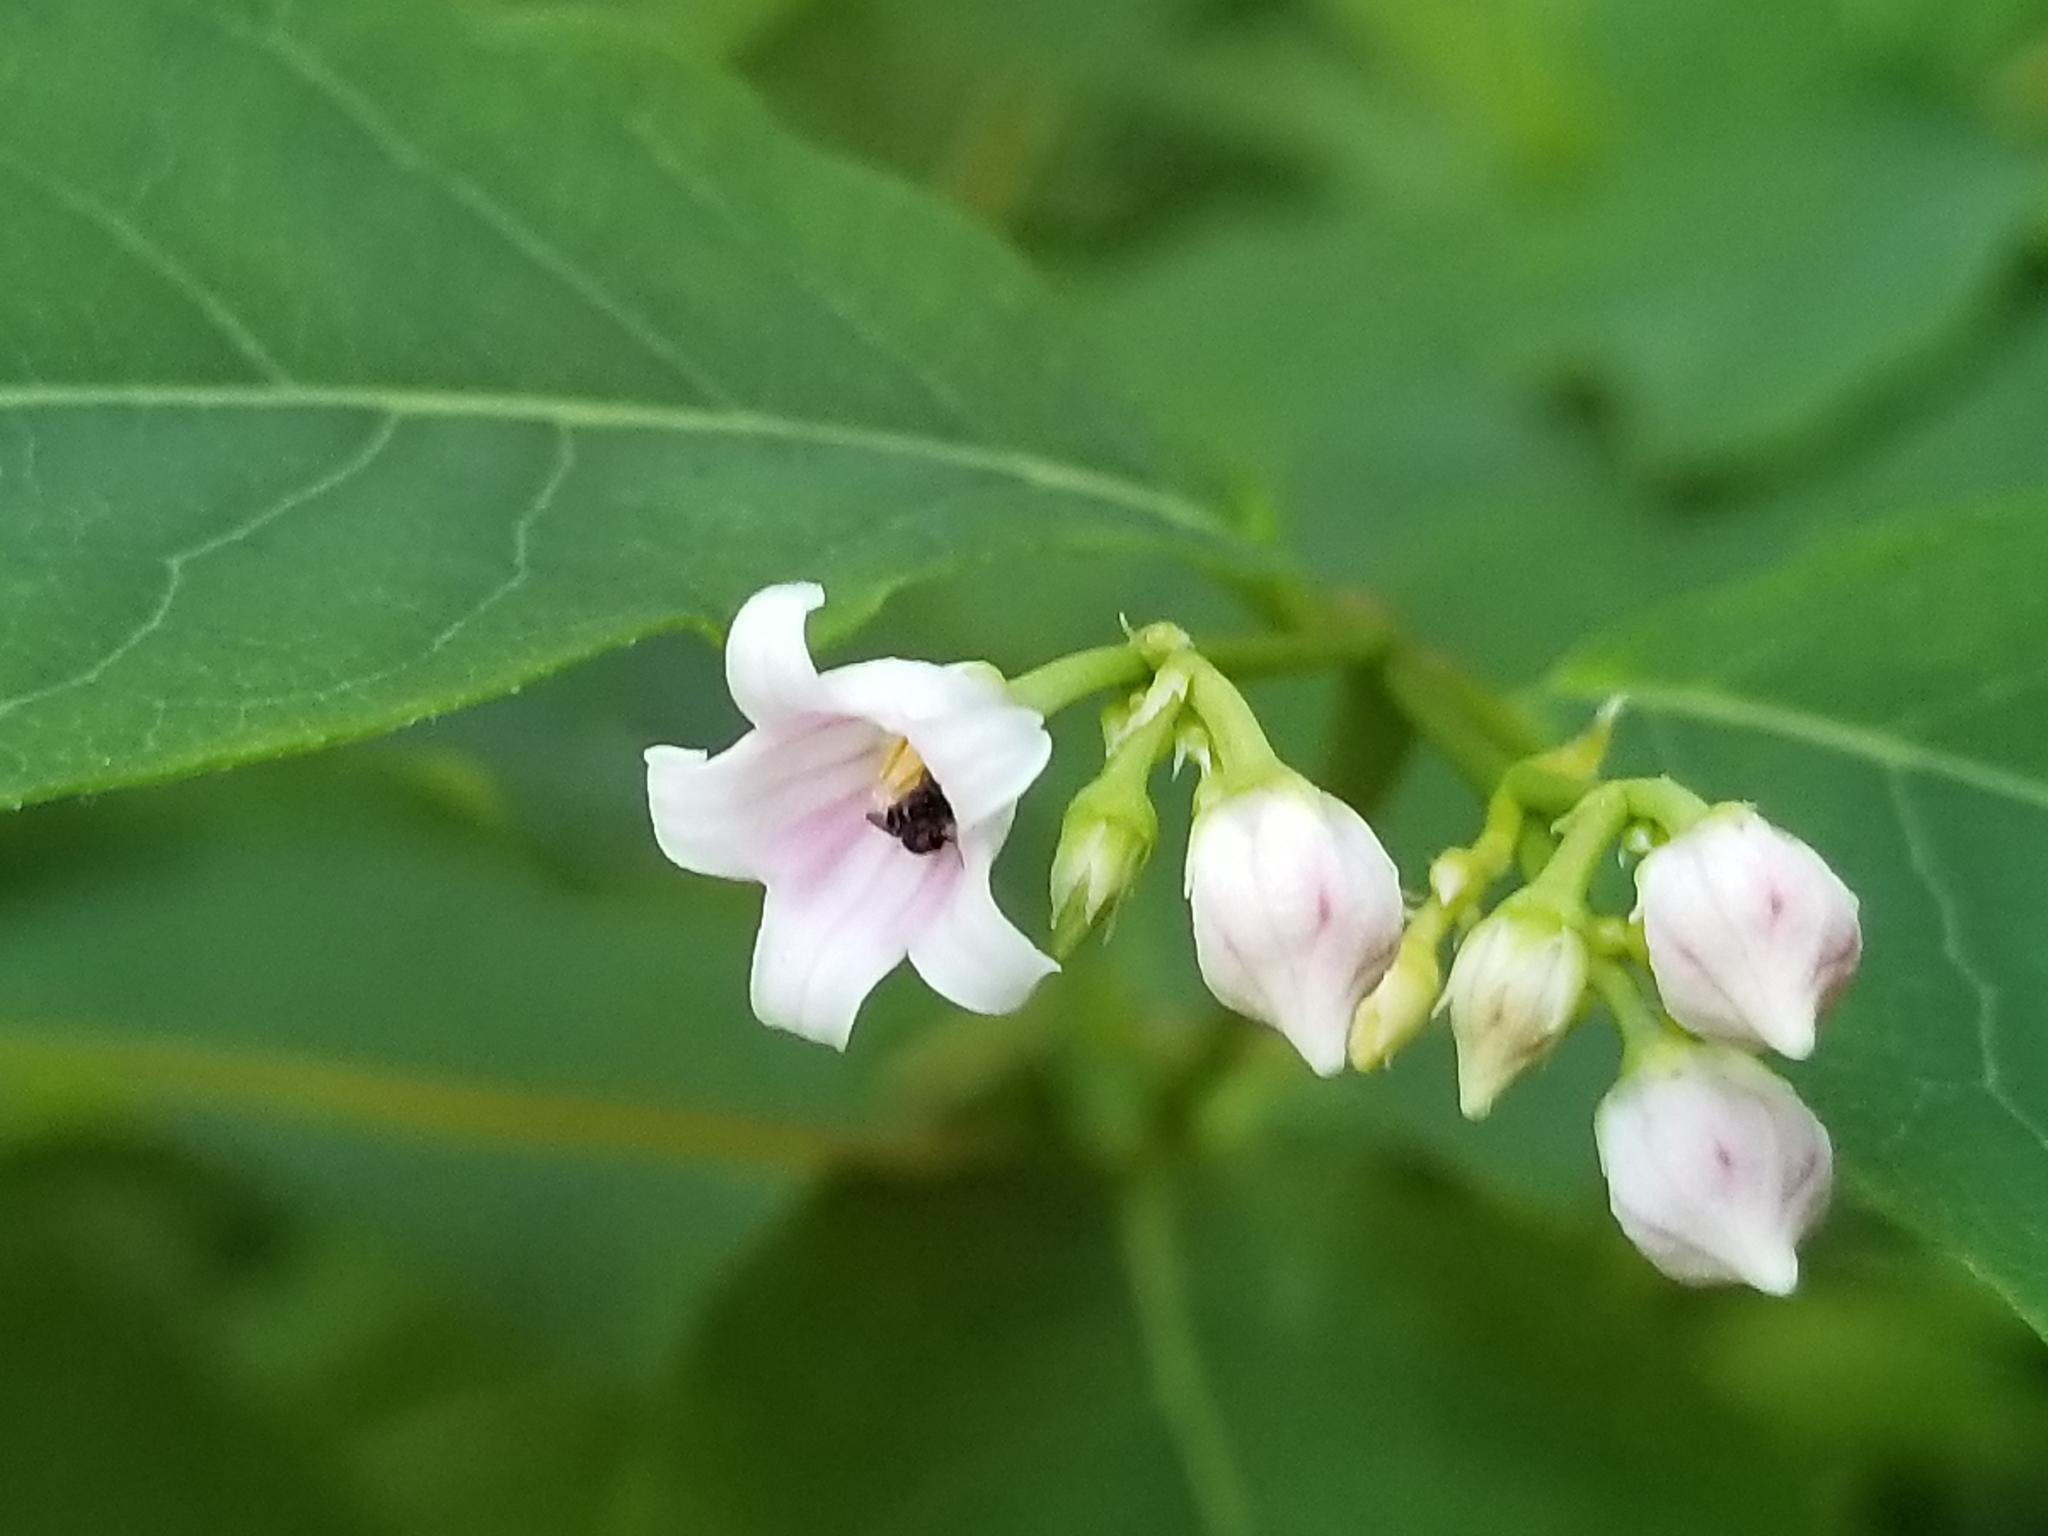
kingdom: Plantae
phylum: Tracheophyta
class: Magnoliopsida
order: Gentianales
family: Apocynaceae
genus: Apocynum
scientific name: Apocynum androsaemifolium
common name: Spreading dogbane
